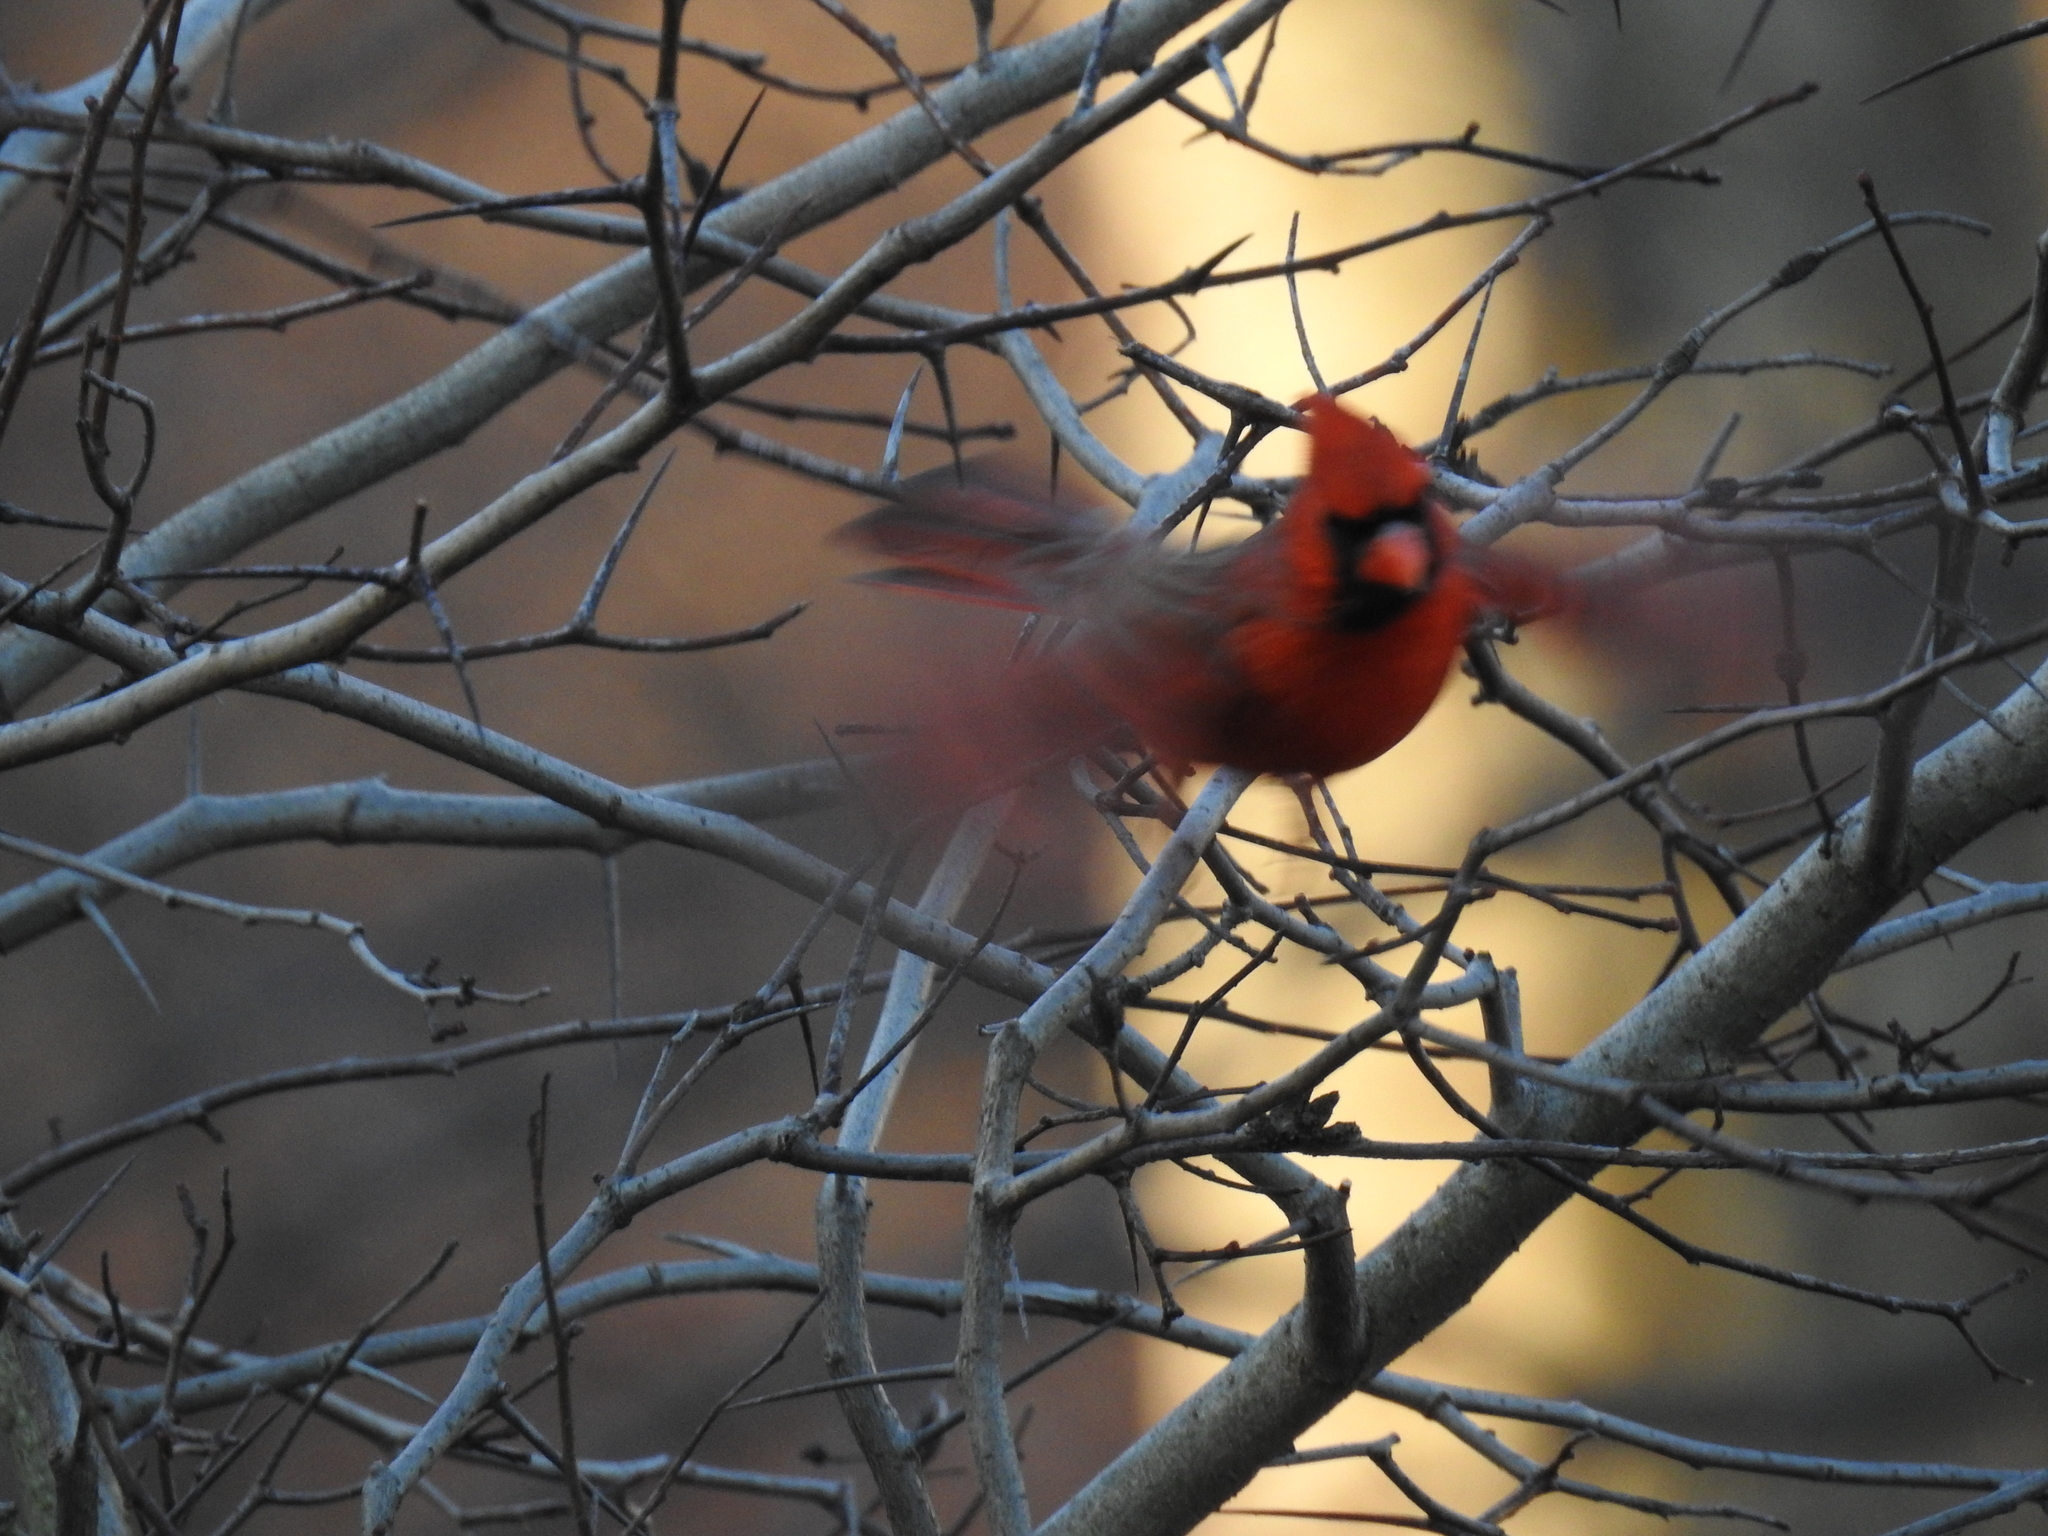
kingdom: Animalia
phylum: Chordata
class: Aves
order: Passeriformes
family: Cardinalidae
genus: Cardinalis
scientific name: Cardinalis cardinalis
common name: Northern cardinal
